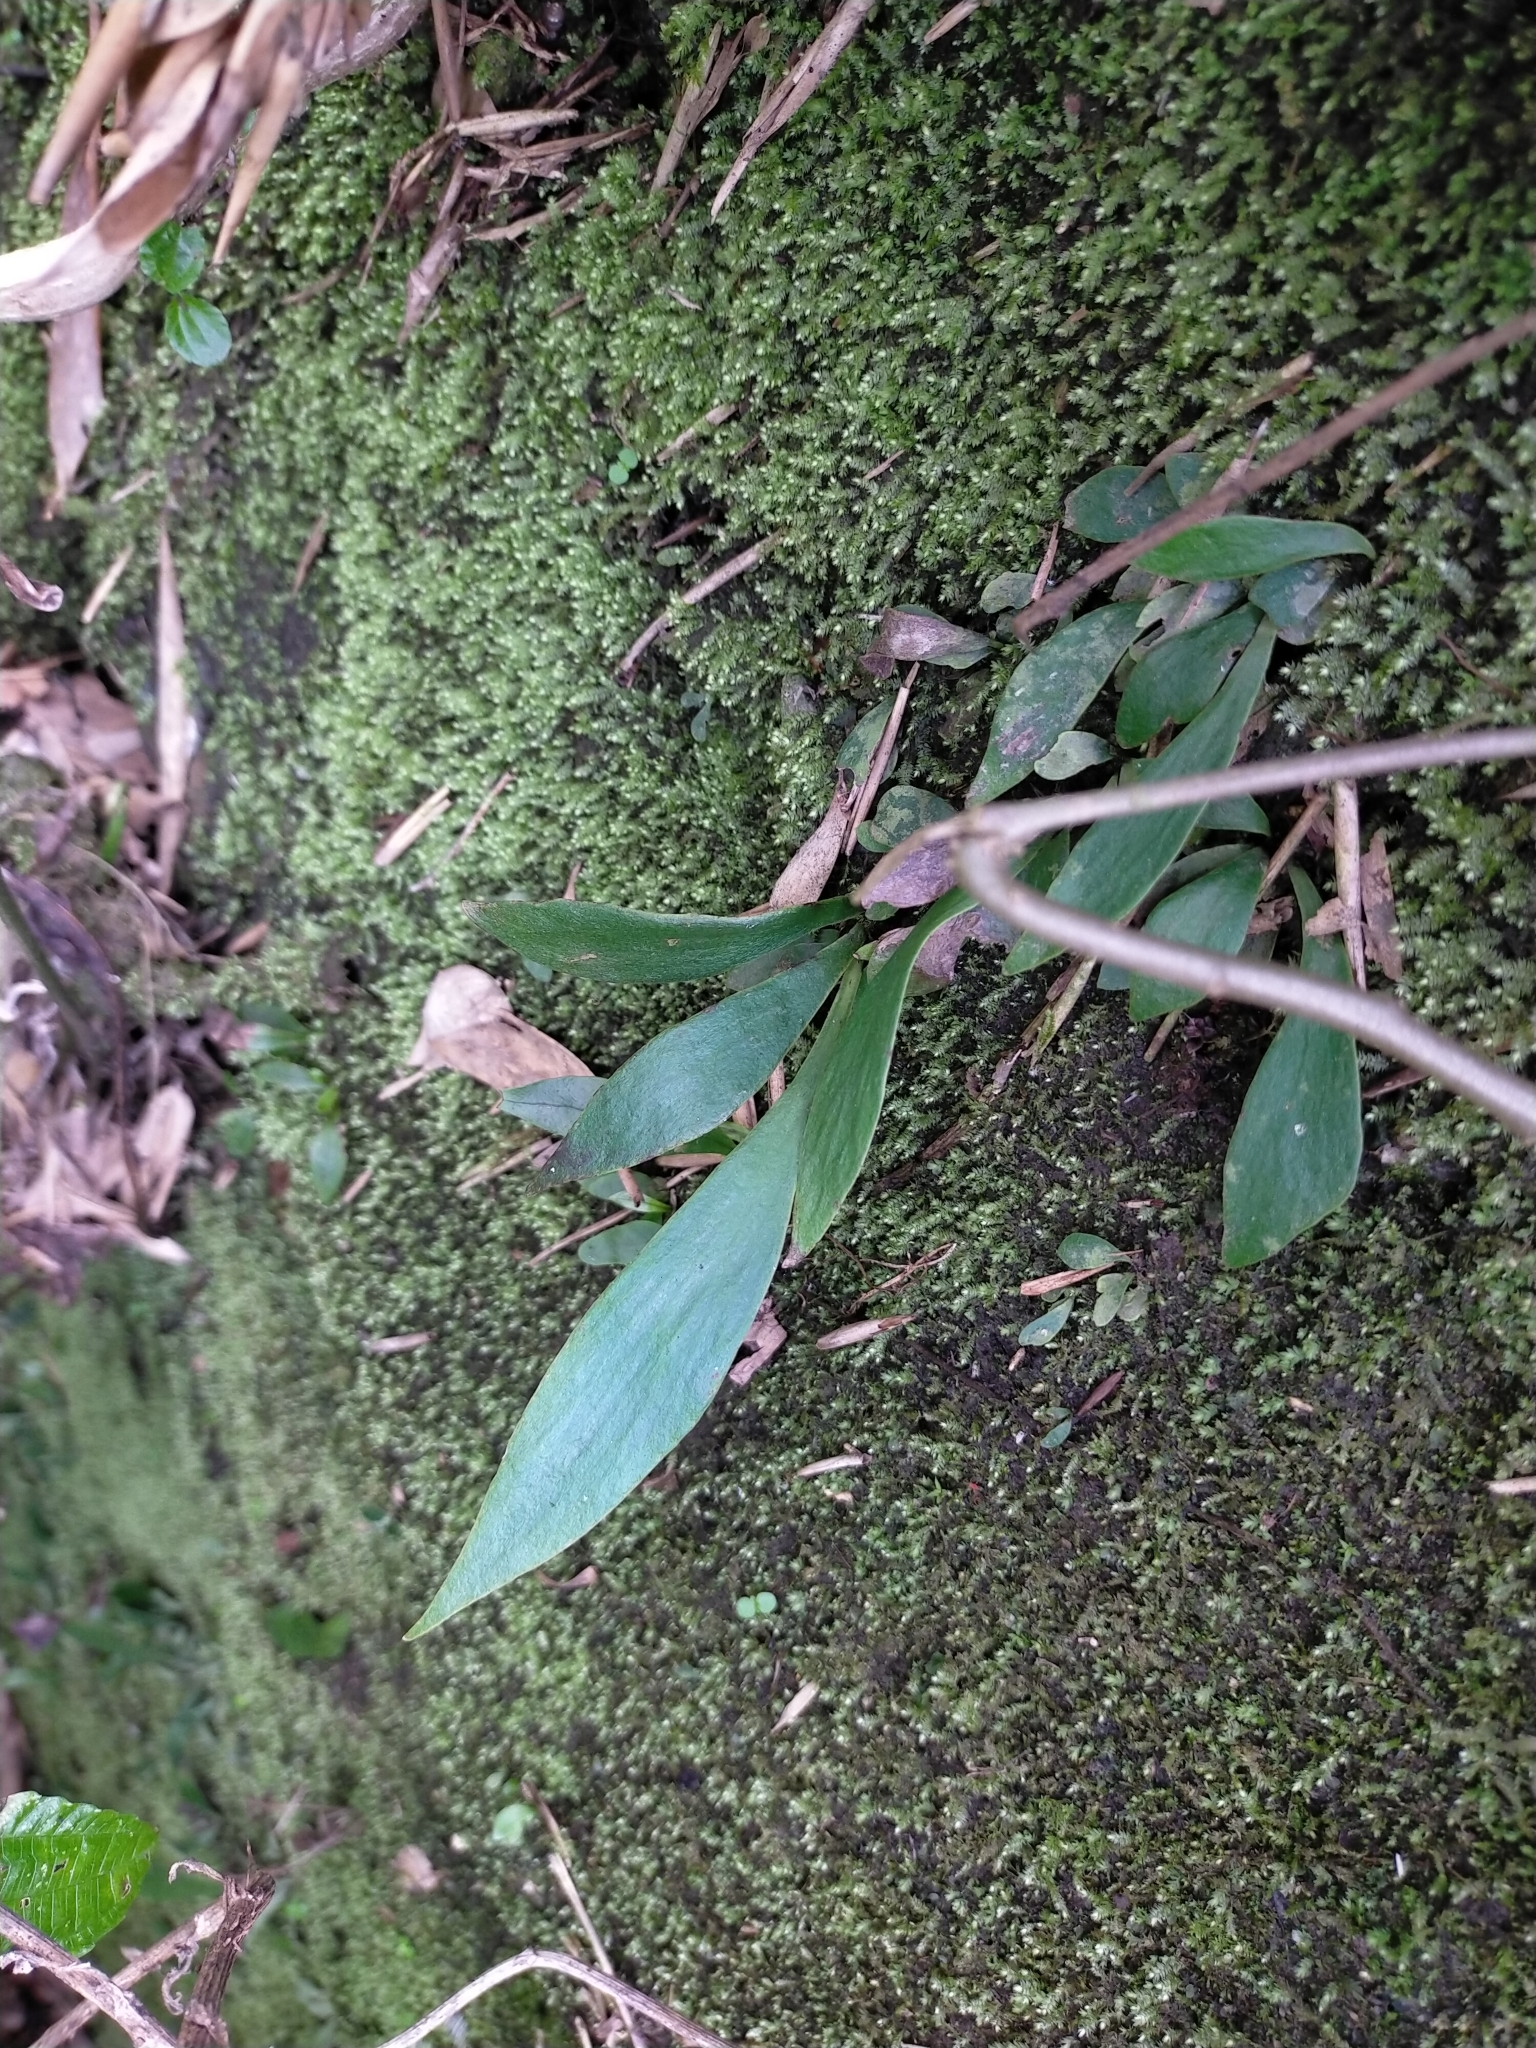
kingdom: Plantae
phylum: Tracheophyta
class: Polypodiopsida
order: Polypodiales
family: Pteridaceae
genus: Antrophyum
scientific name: Antrophyum formosanum
